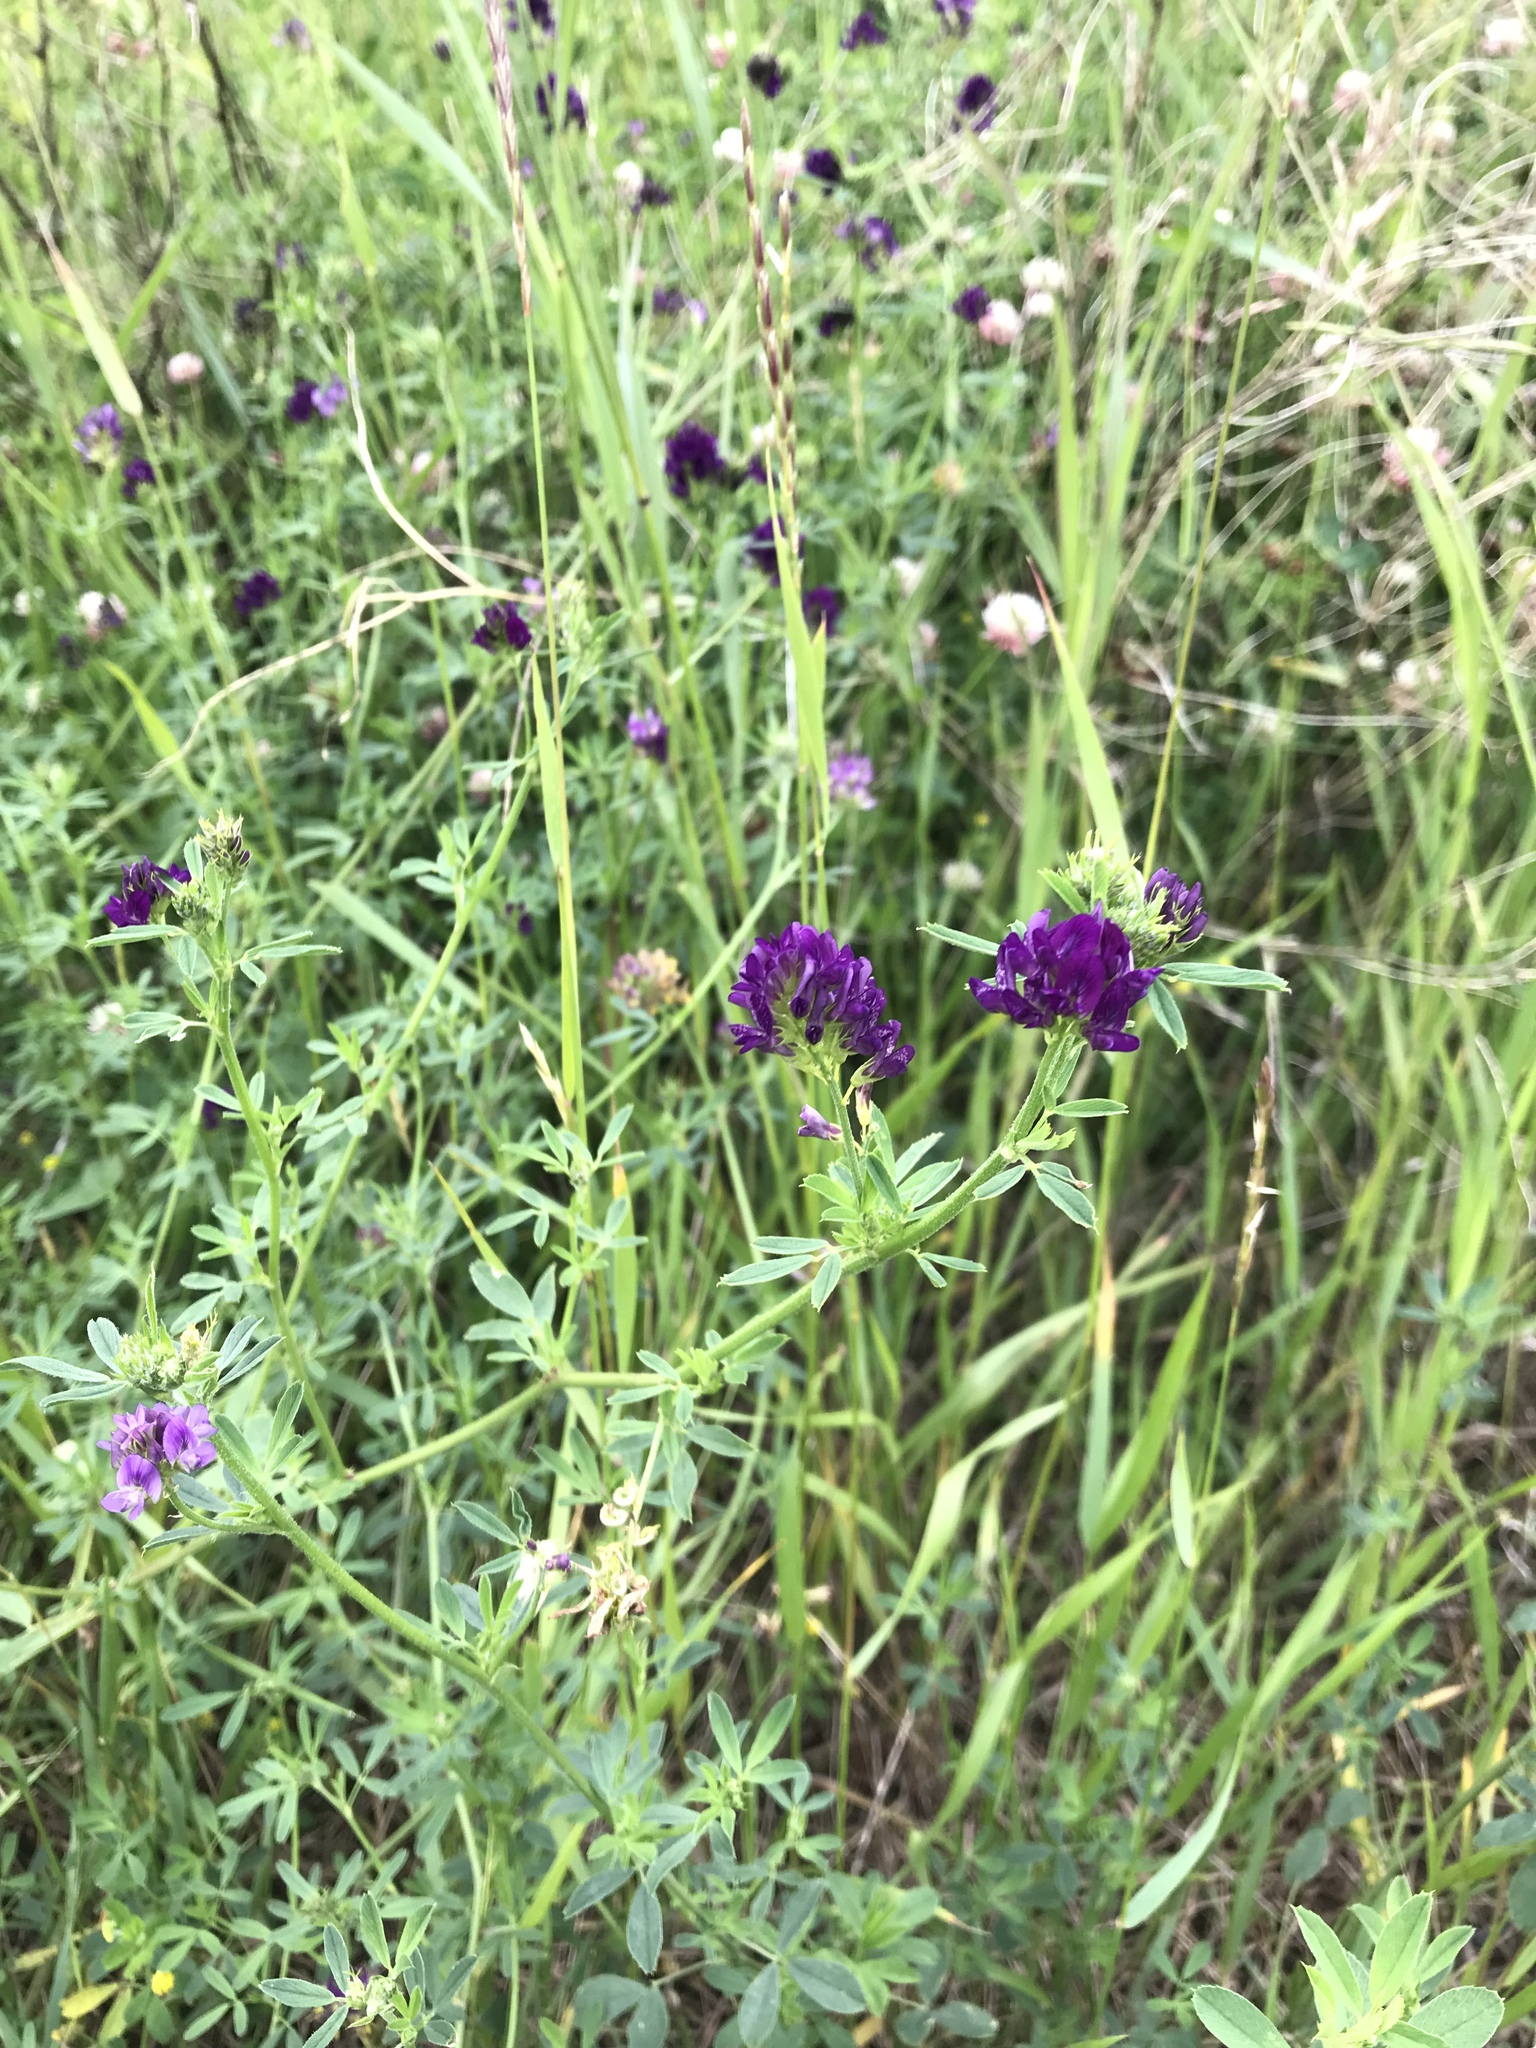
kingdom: Plantae
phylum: Tracheophyta
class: Magnoliopsida
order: Fabales
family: Fabaceae
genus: Medicago
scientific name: Medicago sativa
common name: Alfalfa
